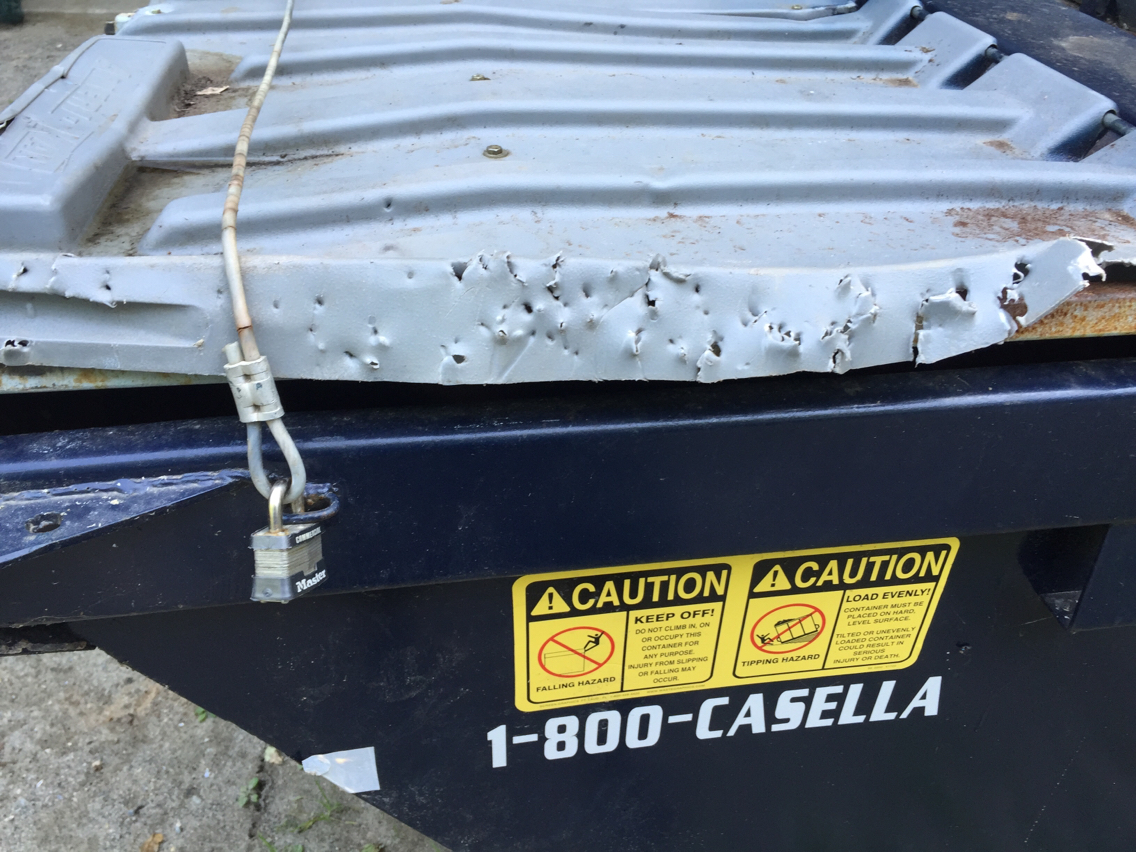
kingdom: Animalia
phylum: Chordata
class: Mammalia
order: Carnivora
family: Ursidae
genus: Ursus
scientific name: Ursus americanus
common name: American black bear
